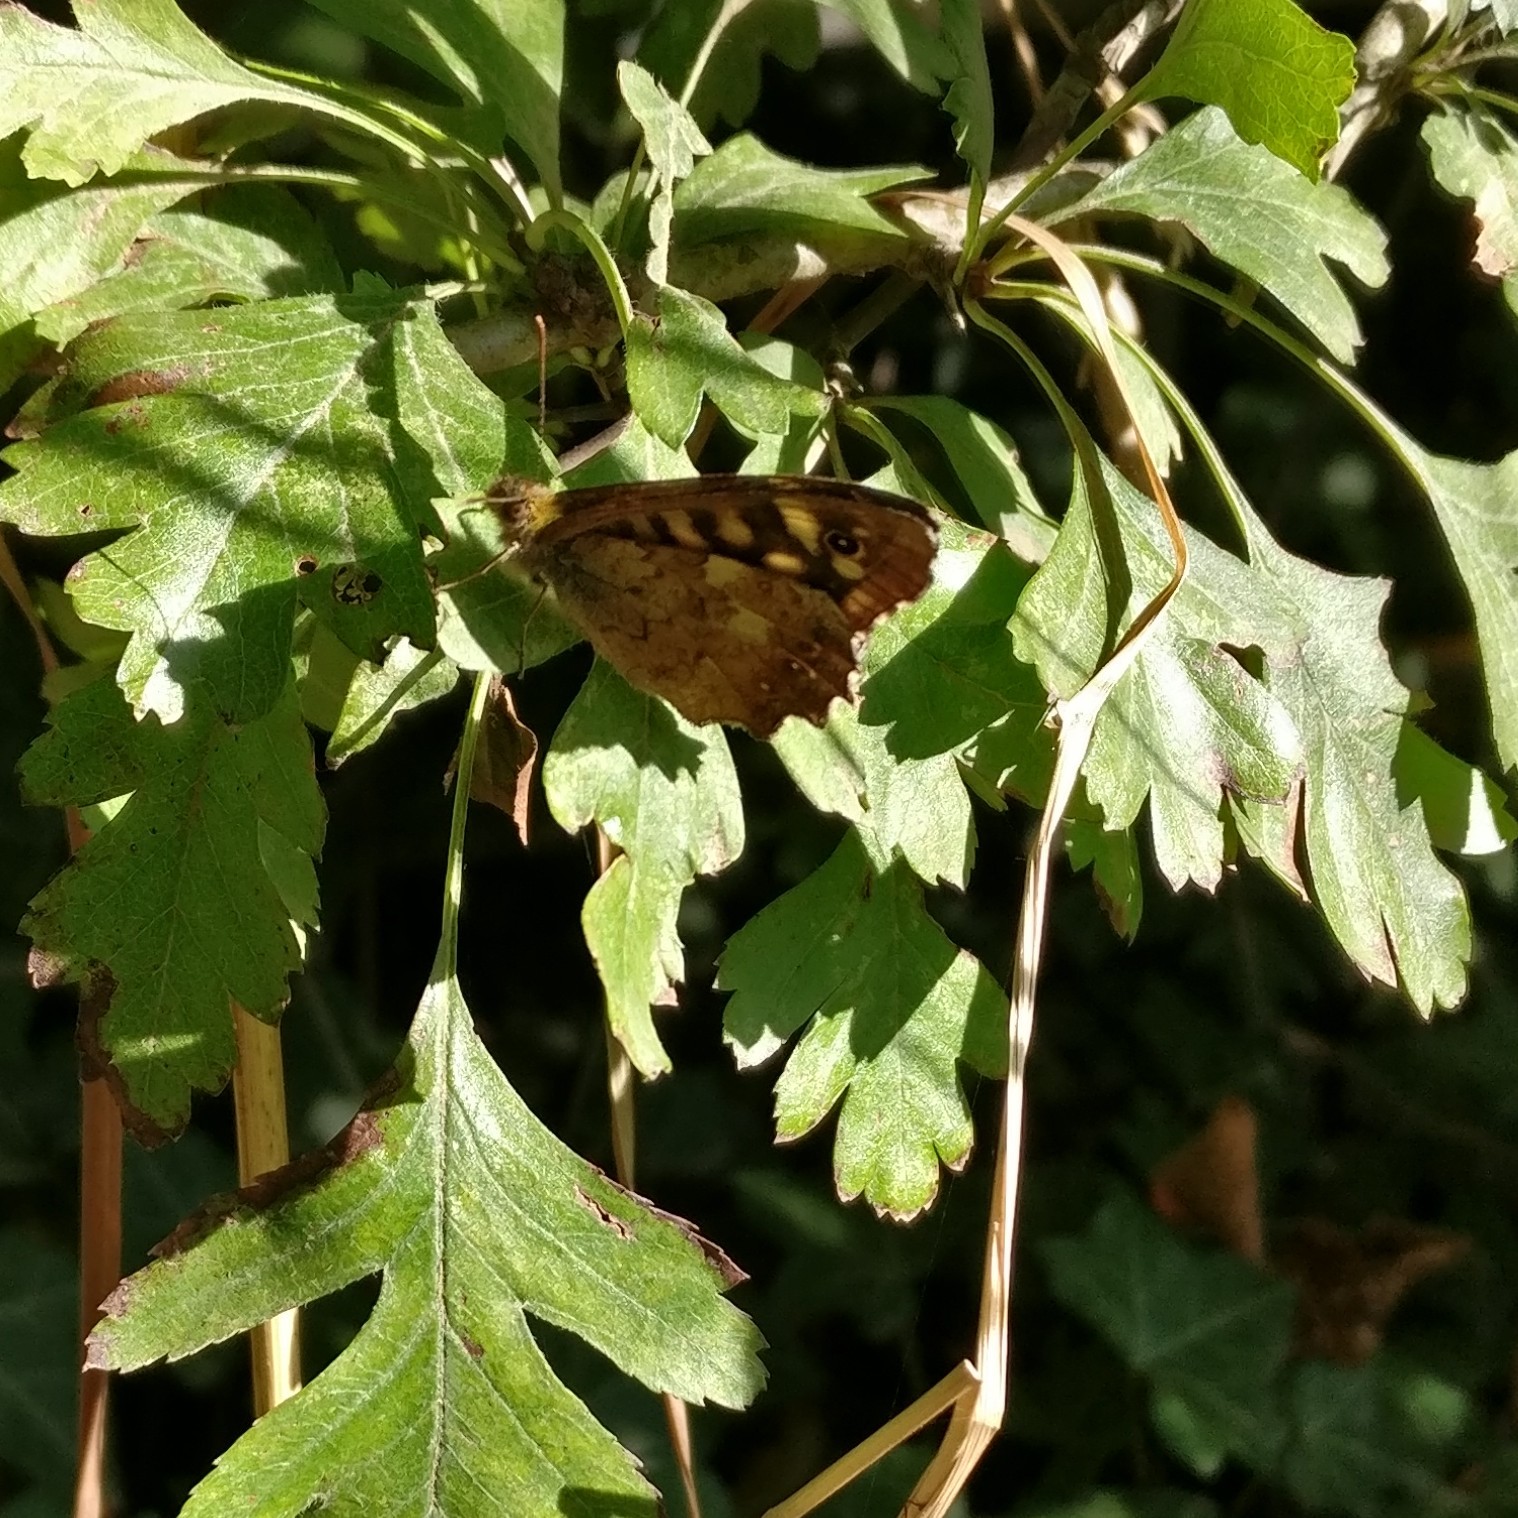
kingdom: Animalia
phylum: Arthropoda
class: Insecta
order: Lepidoptera
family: Nymphalidae
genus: Pararge
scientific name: Pararge aegeria
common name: Speckled wood
